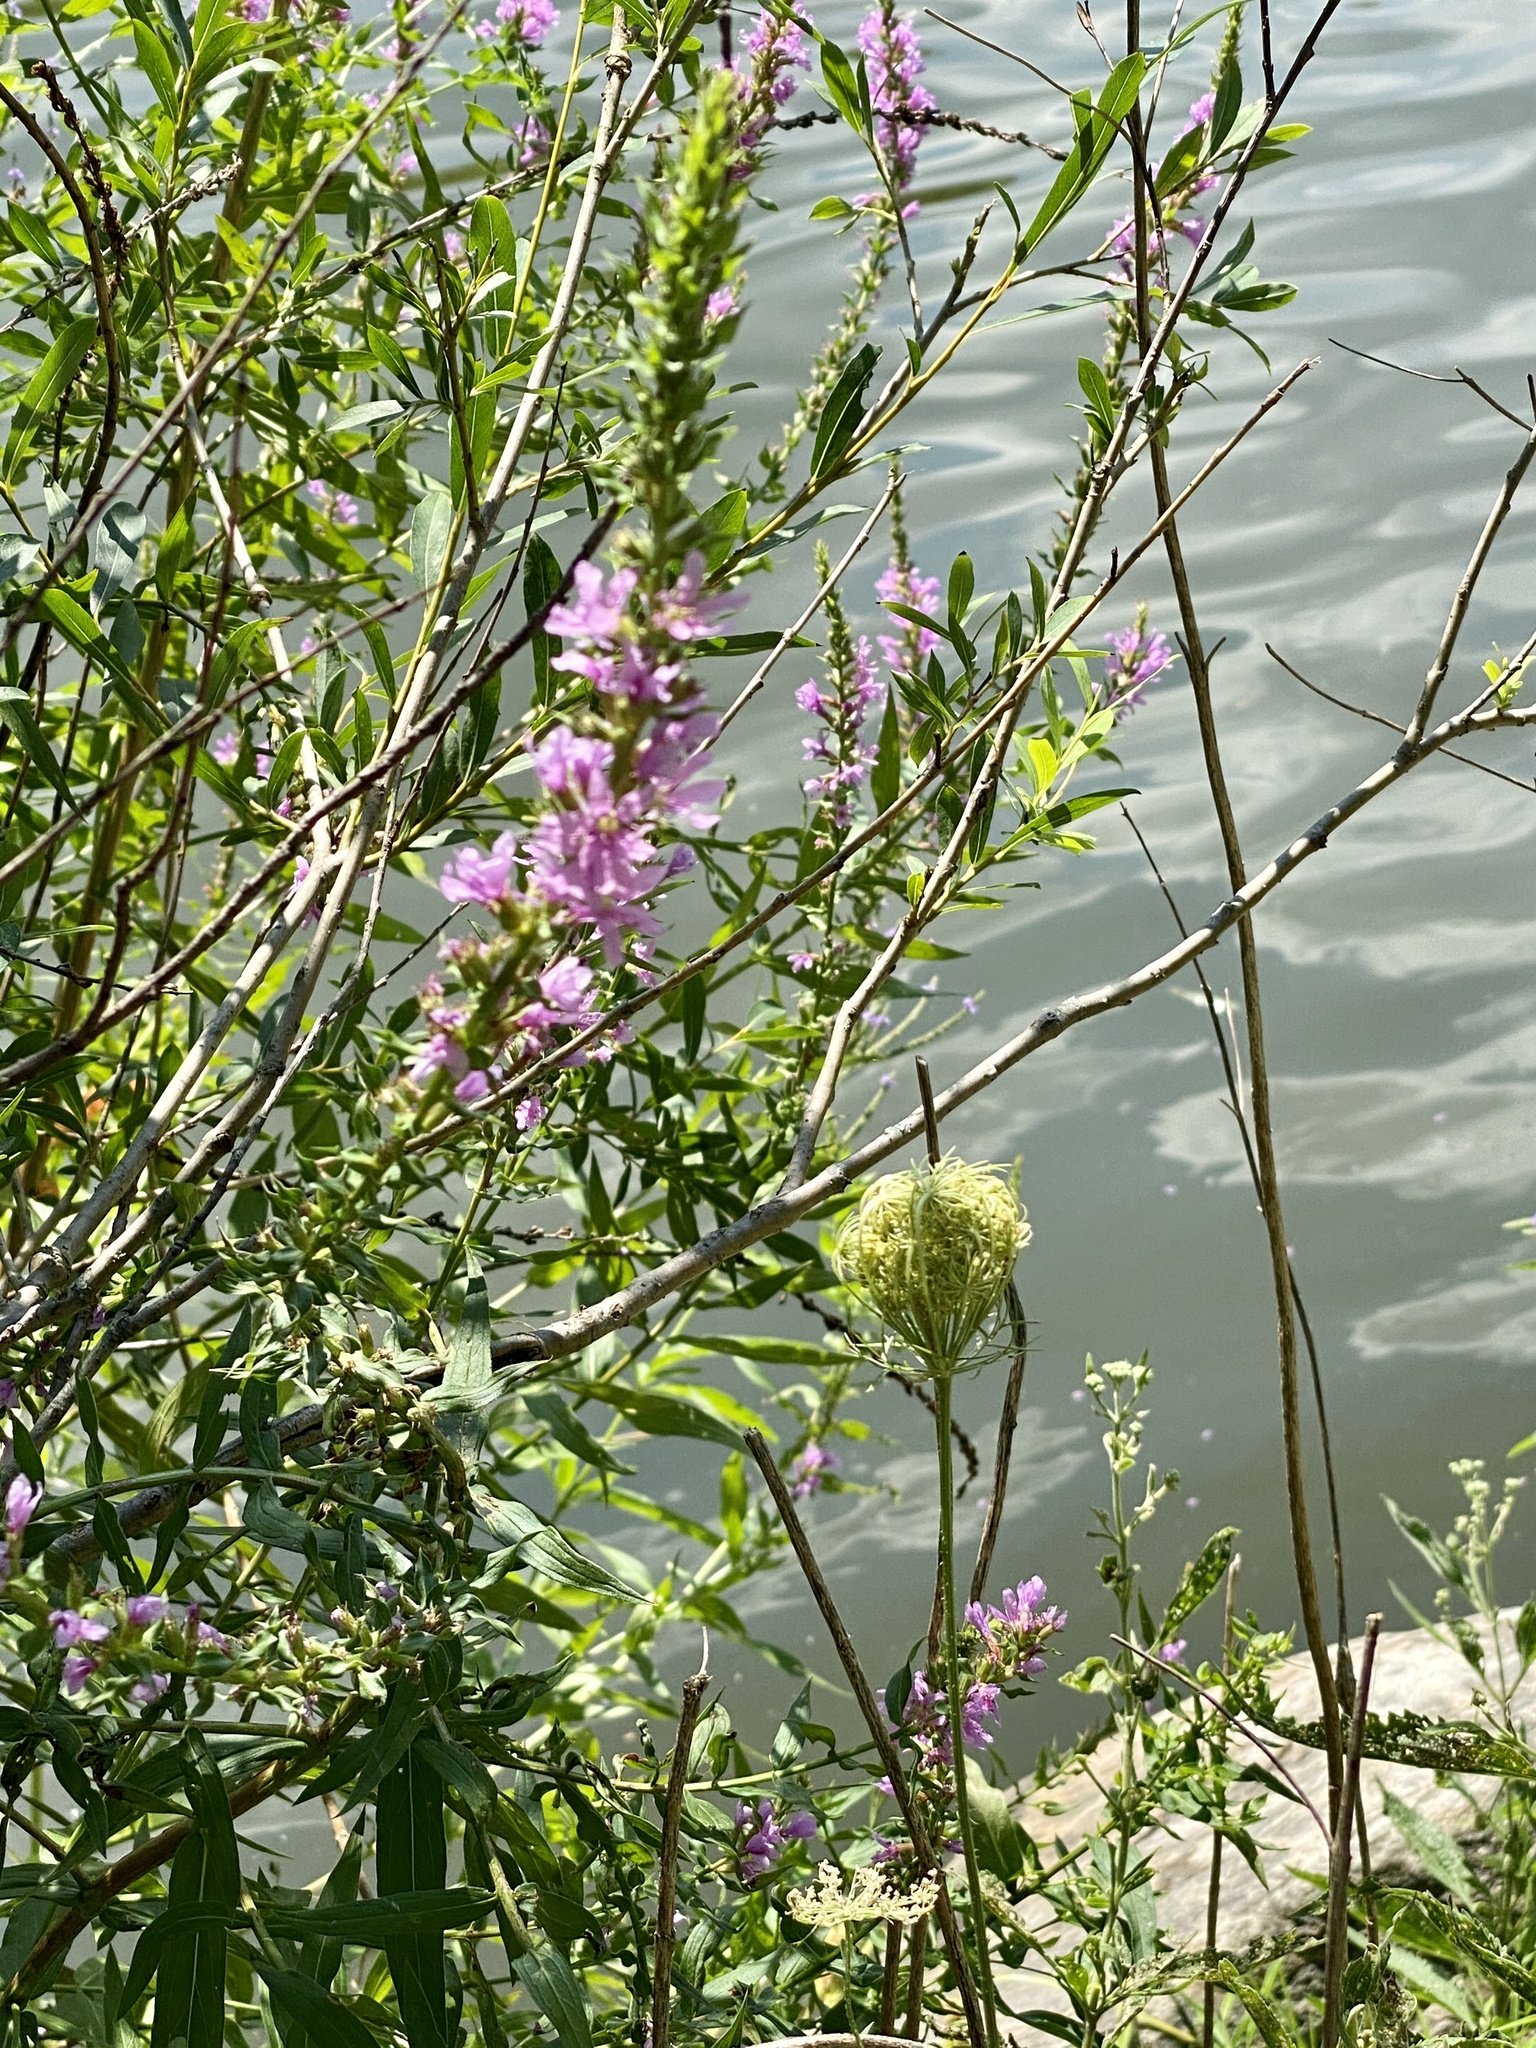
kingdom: Plantae
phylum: Tracheophyta
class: Magnoliopsida
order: Myrtales
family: Lythraceae
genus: Lythrum
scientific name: Lythrum salicaria
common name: Purple loosestrife
